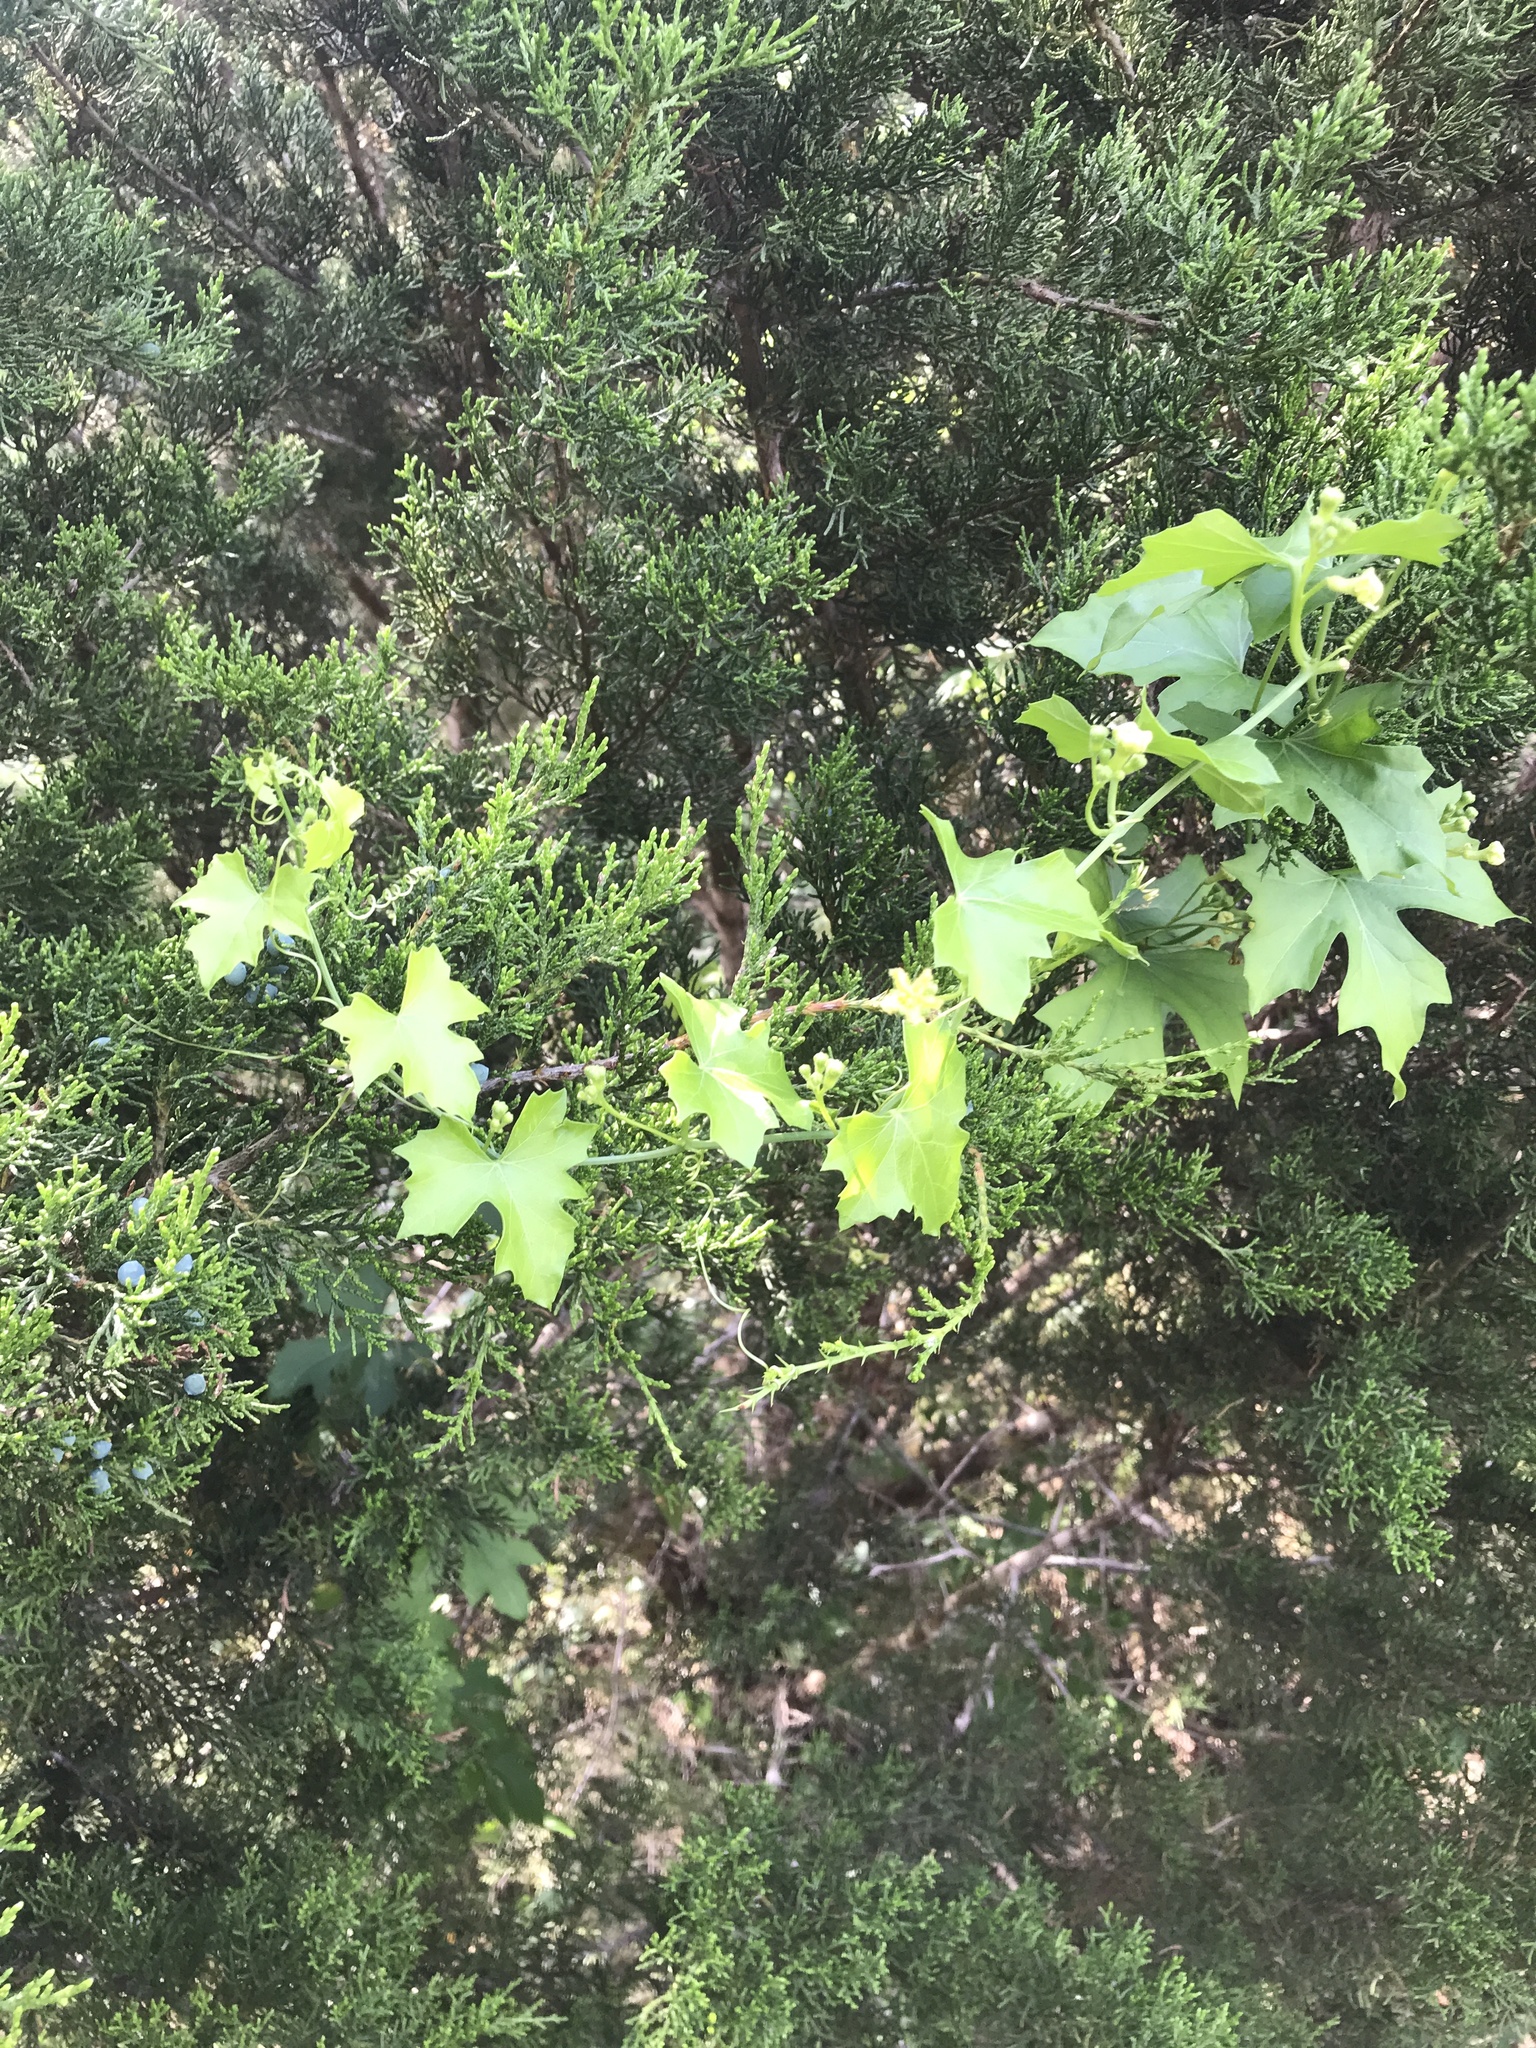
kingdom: Plantae
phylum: Tracheophyta
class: Magnoliopsida
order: Cucurbitales
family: Cucurbitaceae
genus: Ibervillea
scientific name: Ibervillea lindheimeri
